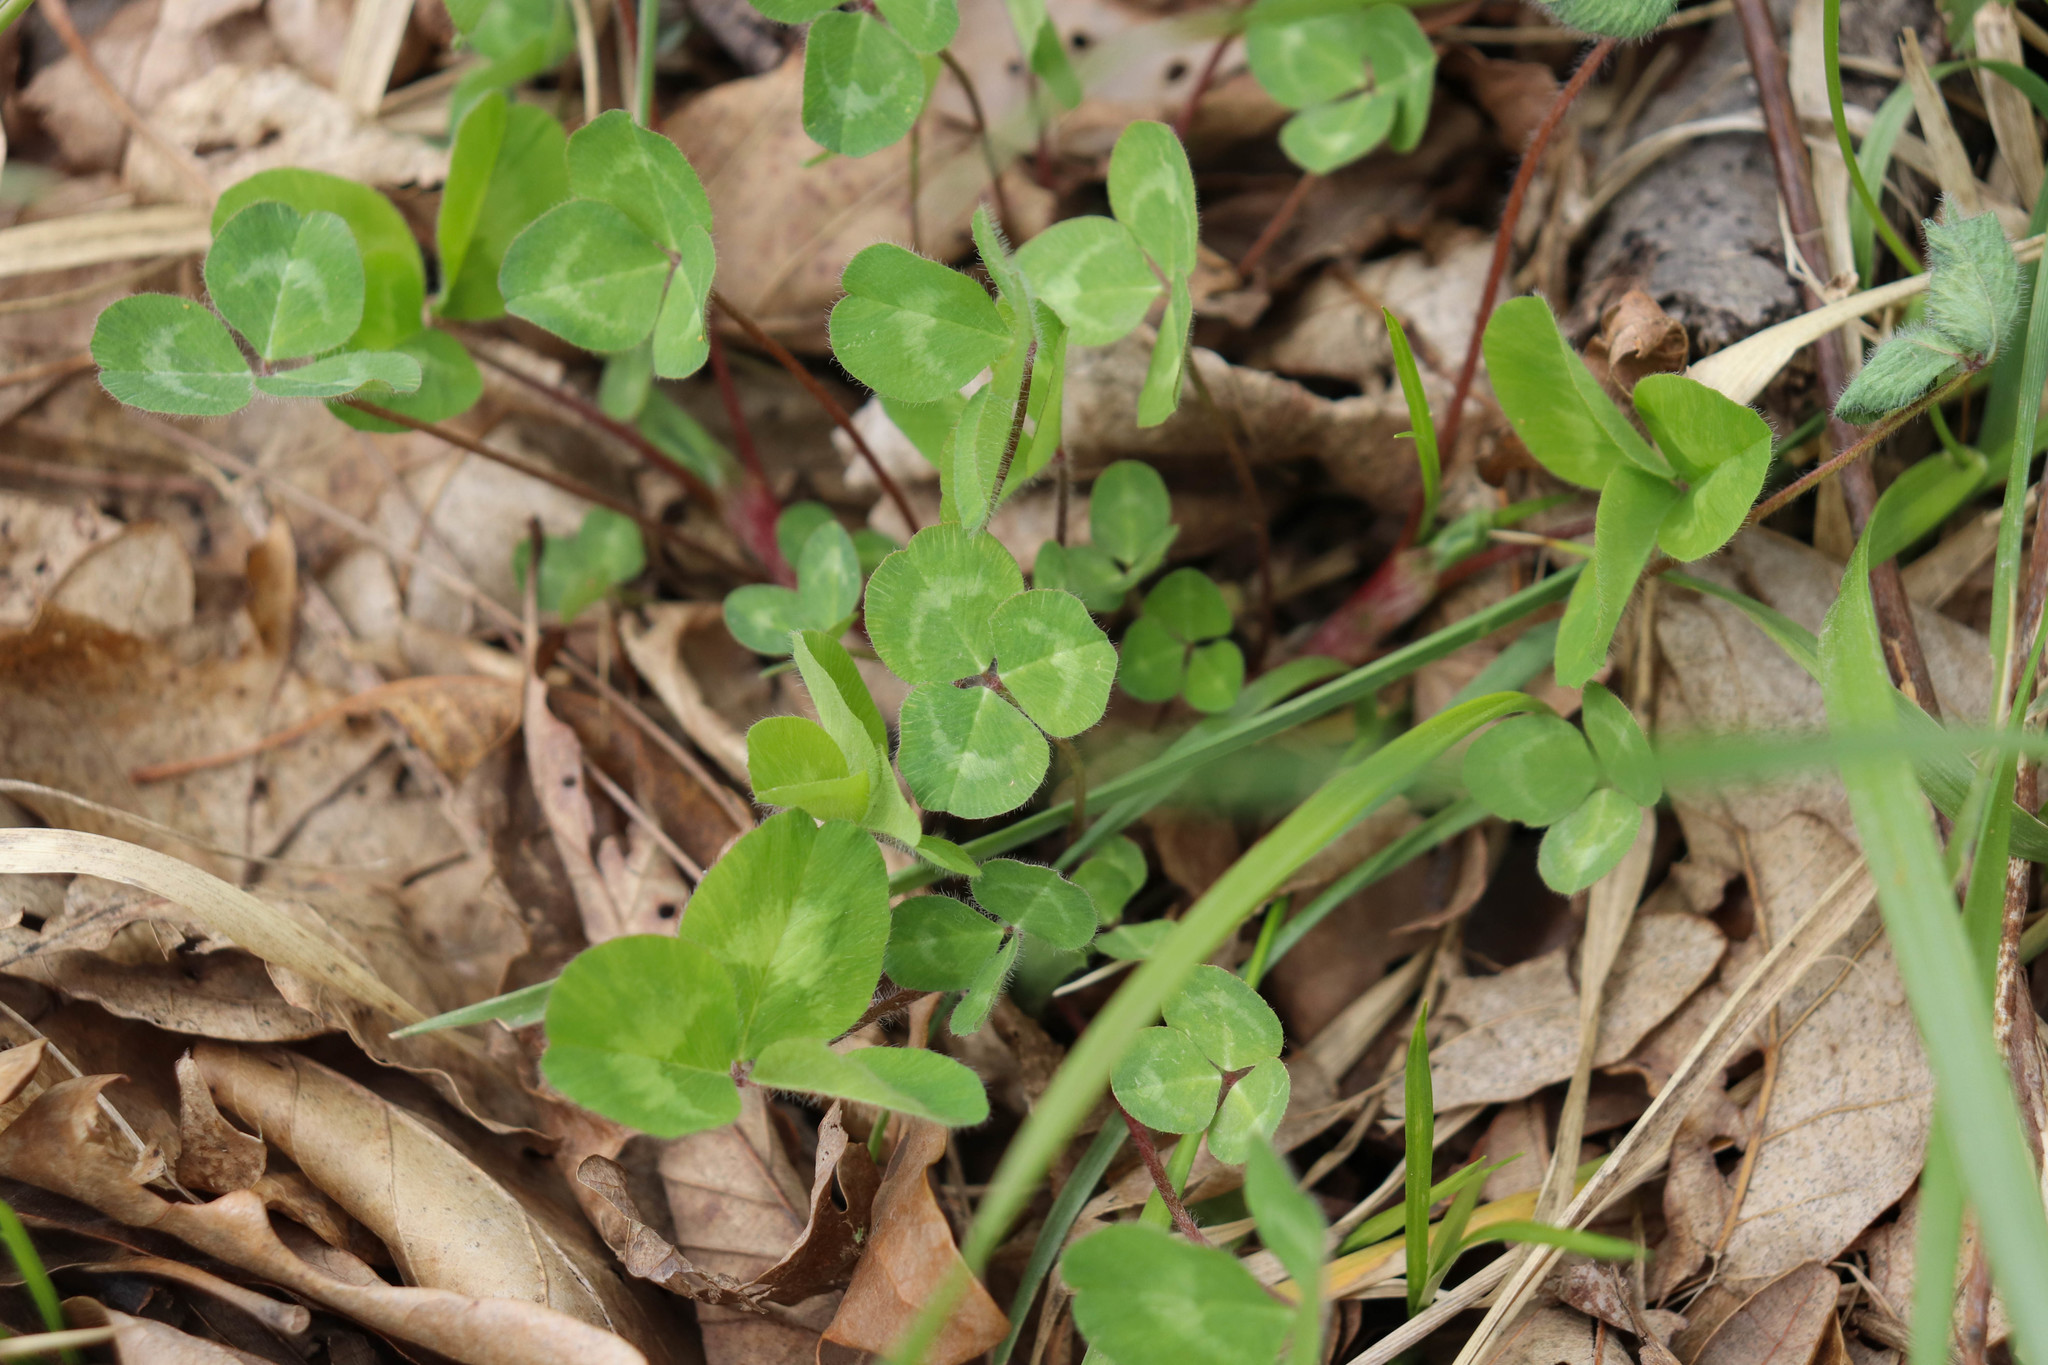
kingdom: Plantae
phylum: Tracheophyta
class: Magnoliopsida
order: Fabales
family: Fabaceae
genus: Trifolium
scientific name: Trifolium repens
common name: White clover
